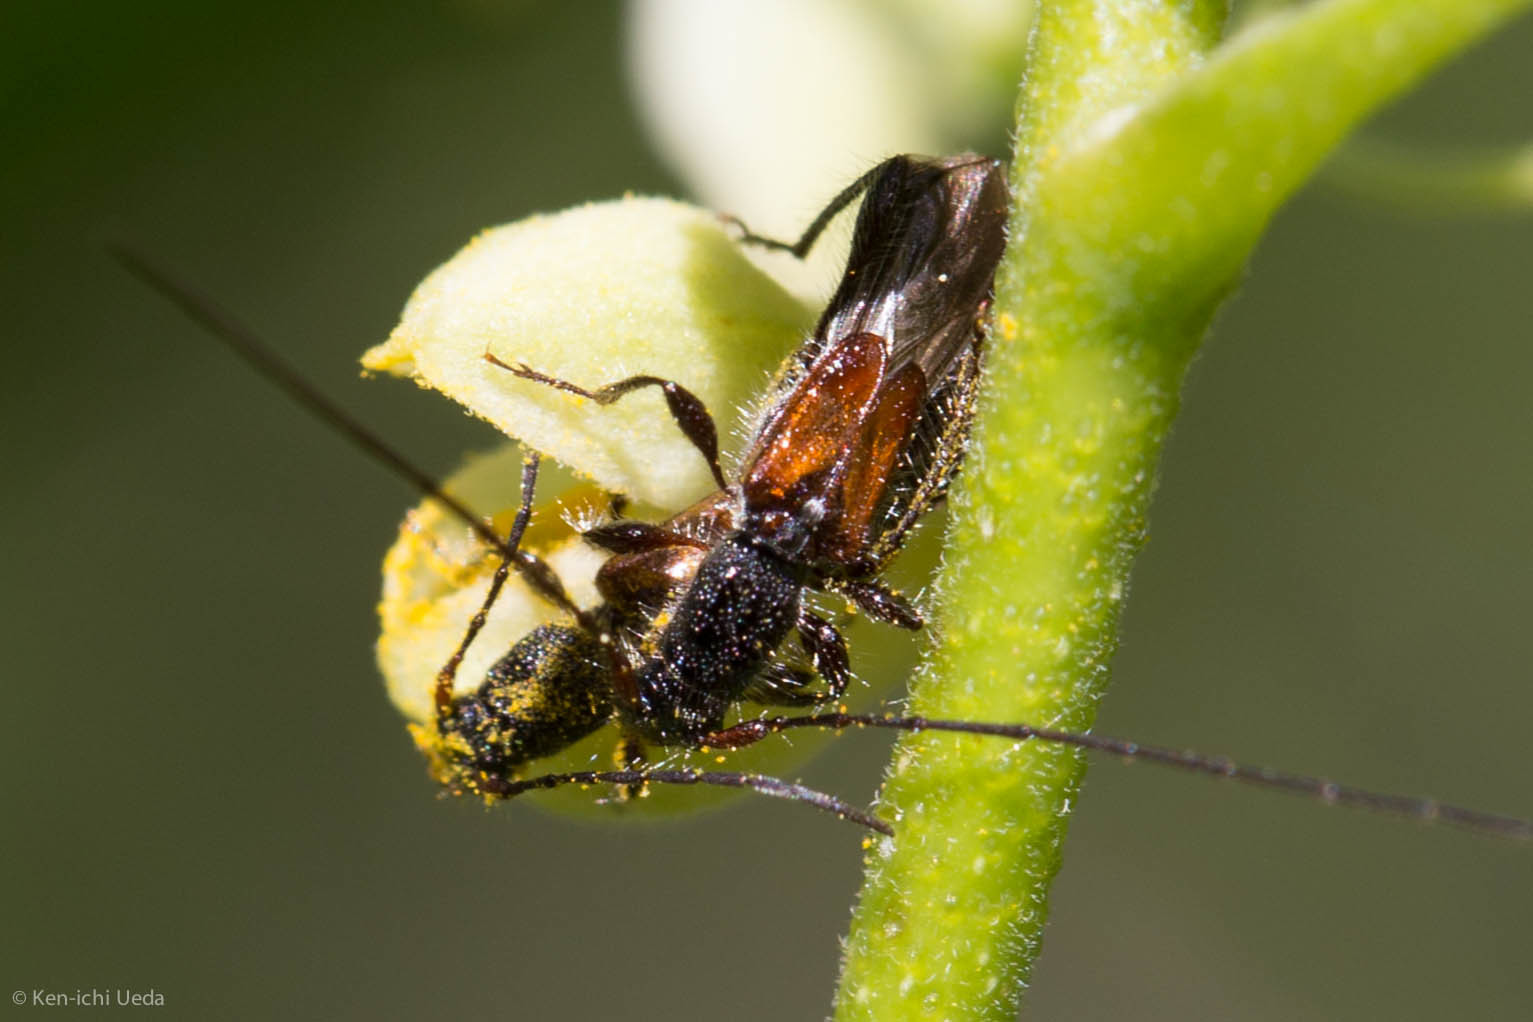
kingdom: Animalia
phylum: Arthropoda
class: Insecta
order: Coleoptera
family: Cerambycidae
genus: Molorchus
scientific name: Molorchus longicollis
